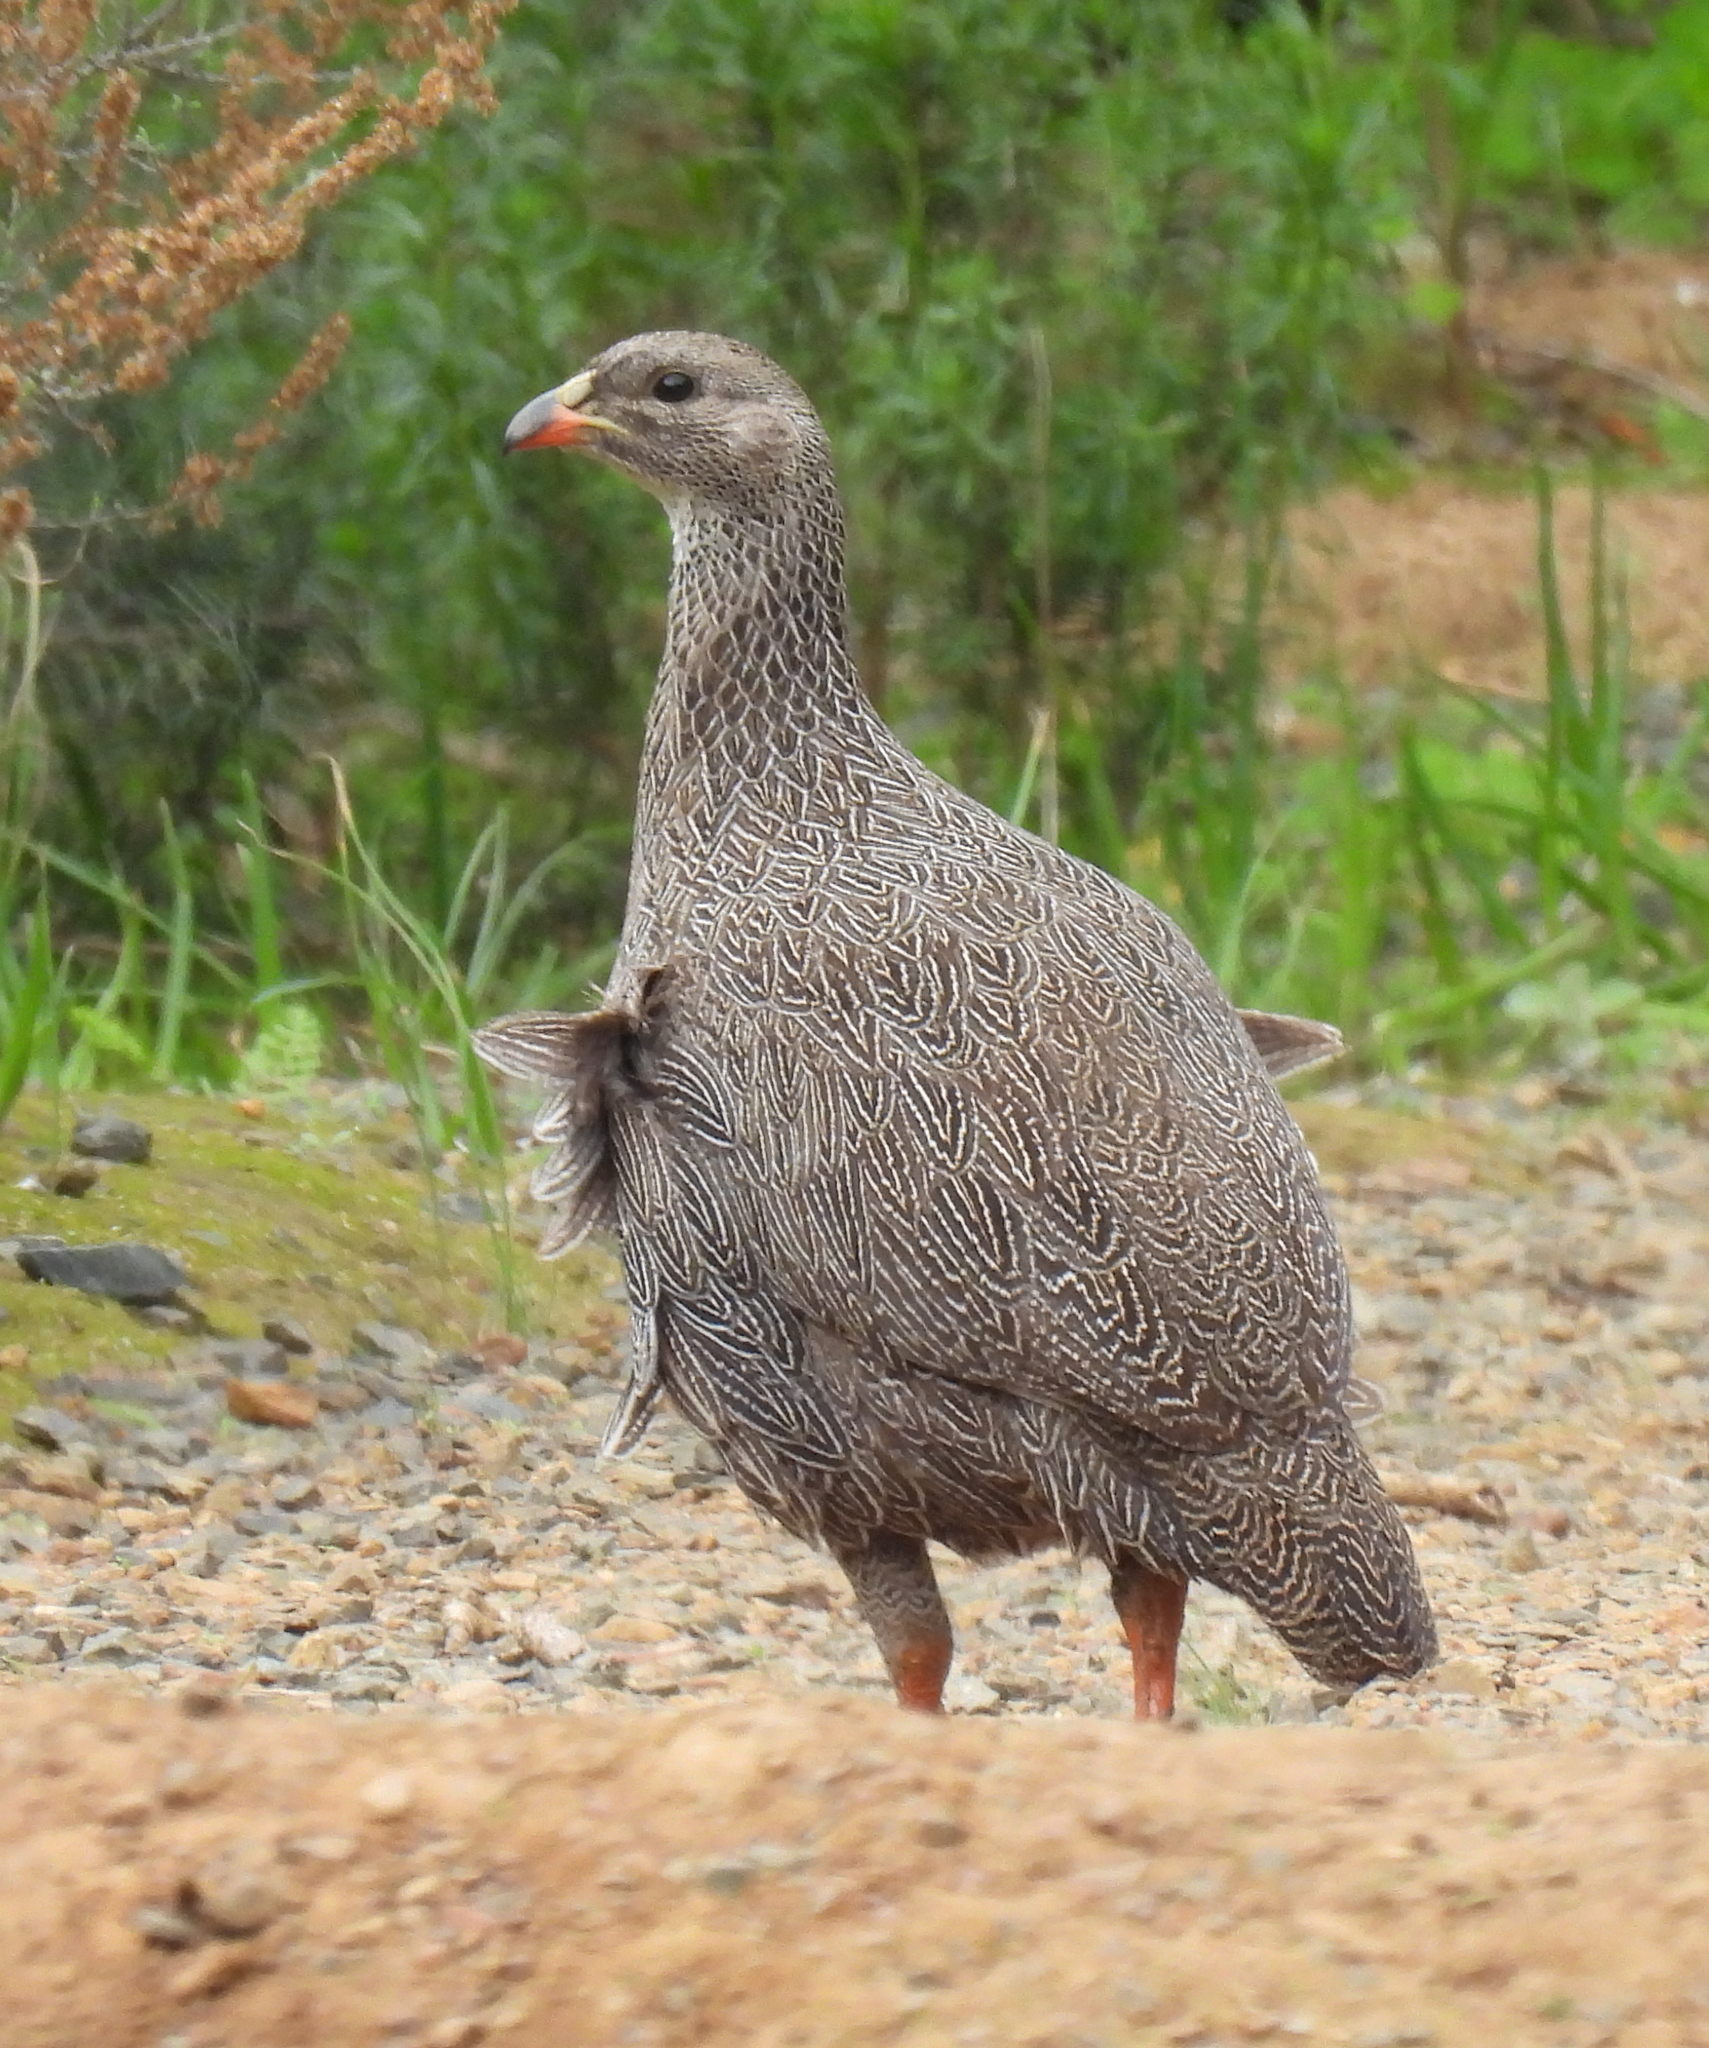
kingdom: Animalia
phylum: Chordata
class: Aves
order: Galliformes
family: Phasianidae
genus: Pternistis
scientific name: Pternistis capensis
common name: Cape spurfowl
